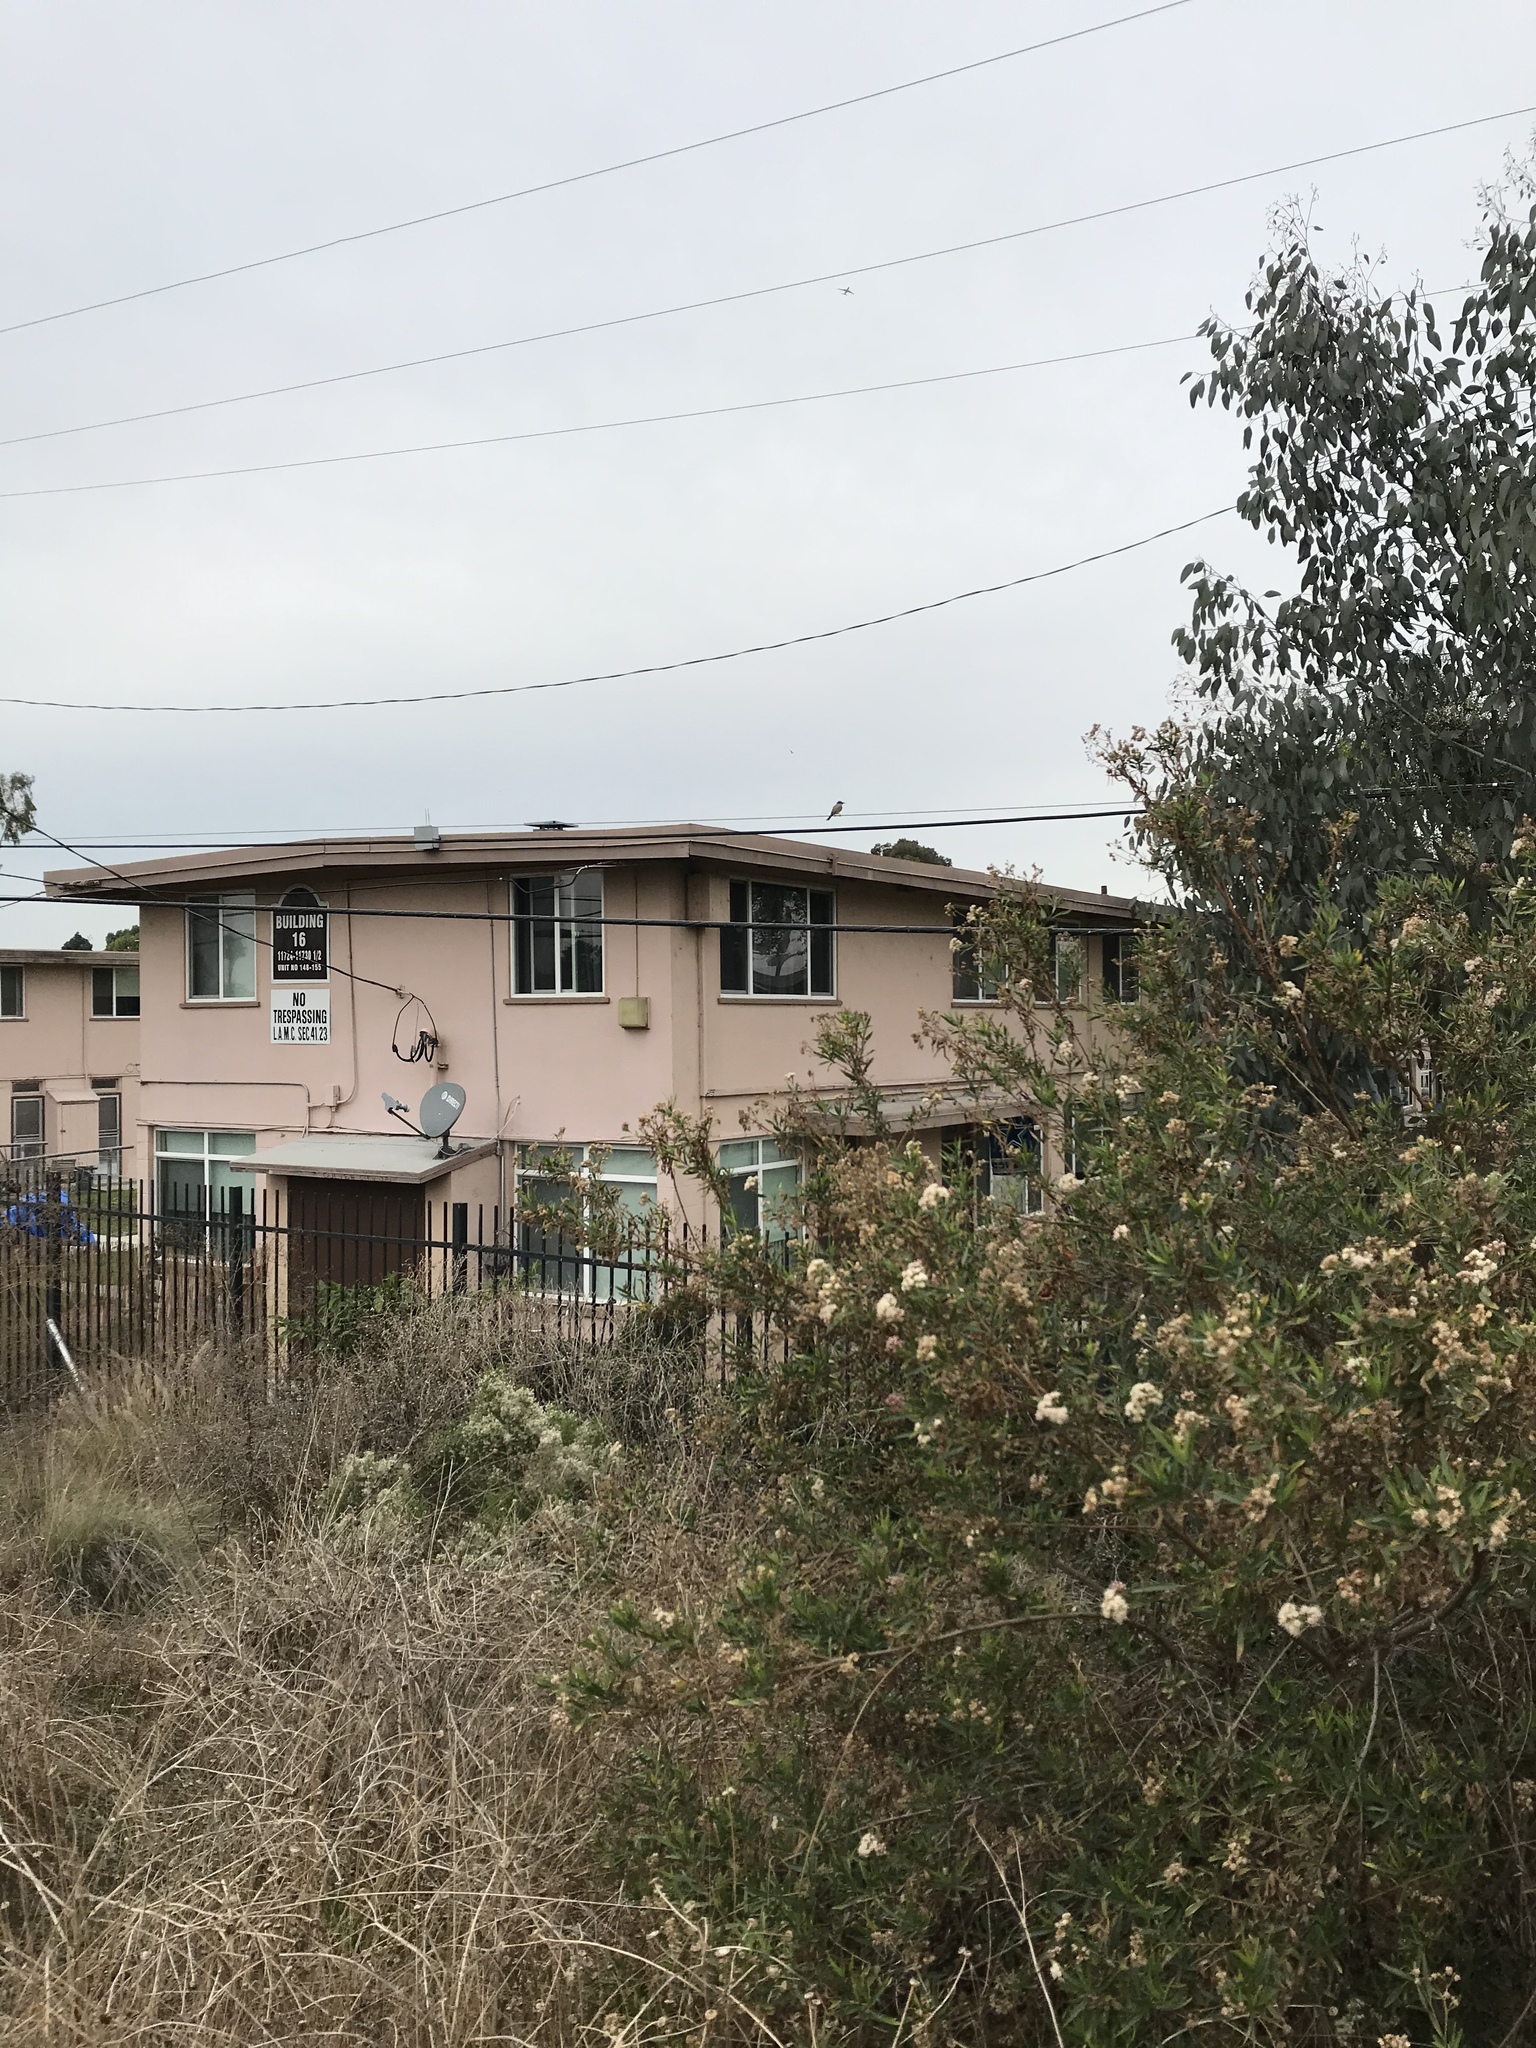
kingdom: Animalia
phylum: Chordata
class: Aves
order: Passeriformes
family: Tyrannidae
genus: Tyrannus
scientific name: Tyrannus
